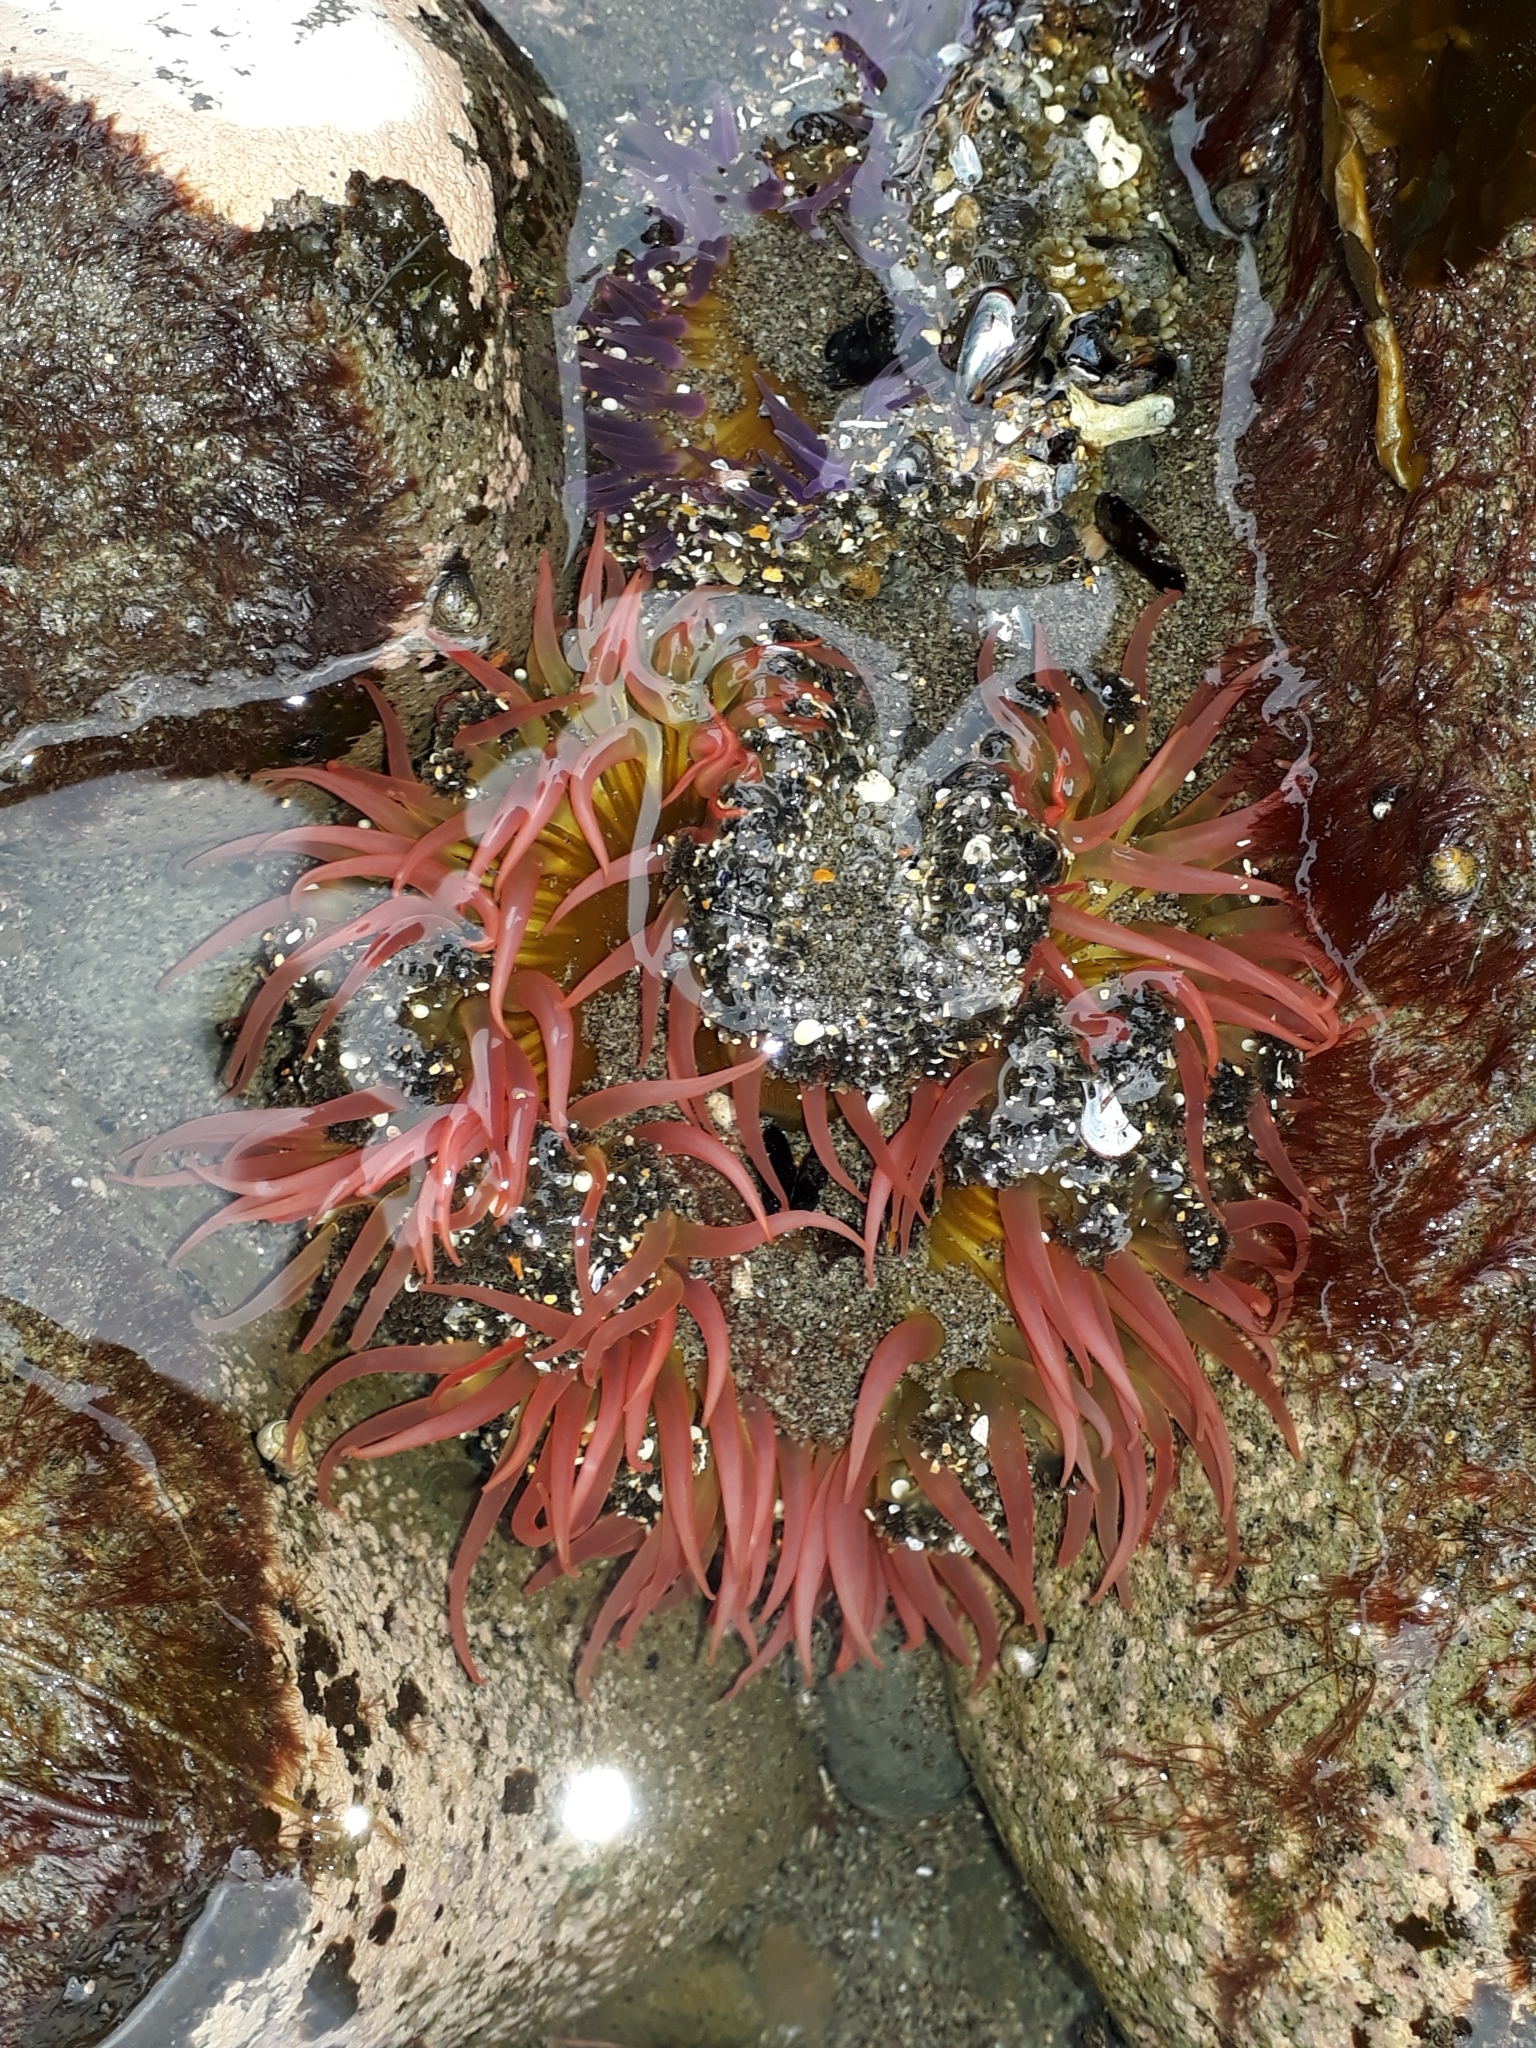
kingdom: Animalia
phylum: Cnidaria
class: Anthozoa
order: Actiniaria
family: Actiniidae
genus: Oulactis
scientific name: Oulactis magna
